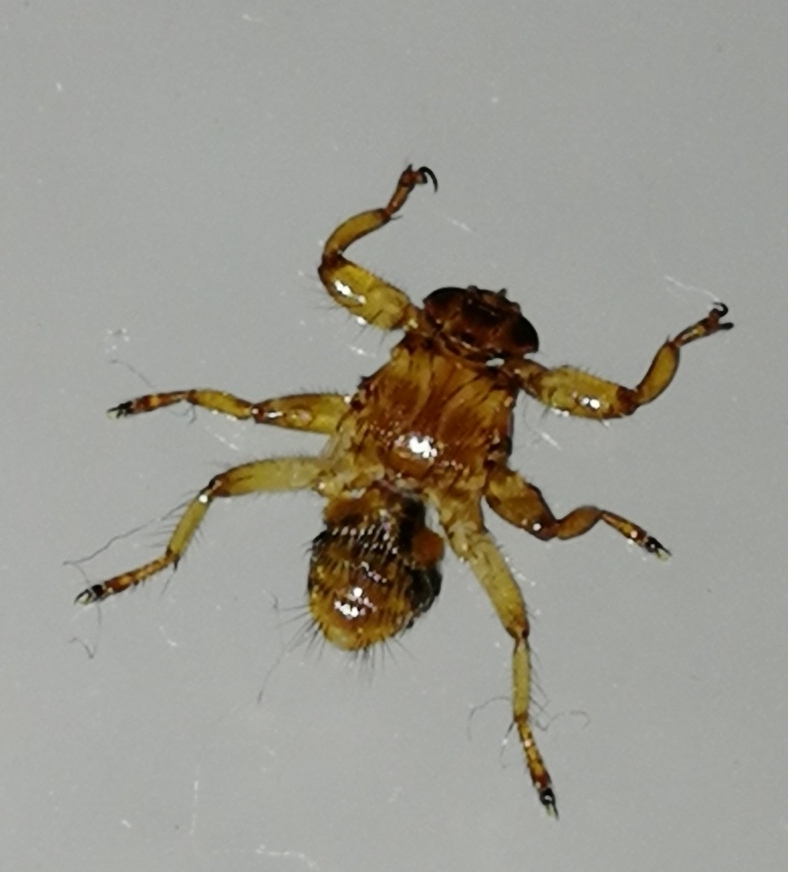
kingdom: Animalia
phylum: Arthropoda
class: Insecta
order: Diptera
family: Hippoboscidae
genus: Lipoptena
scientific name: Lipoptena cervi
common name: Deer ked
